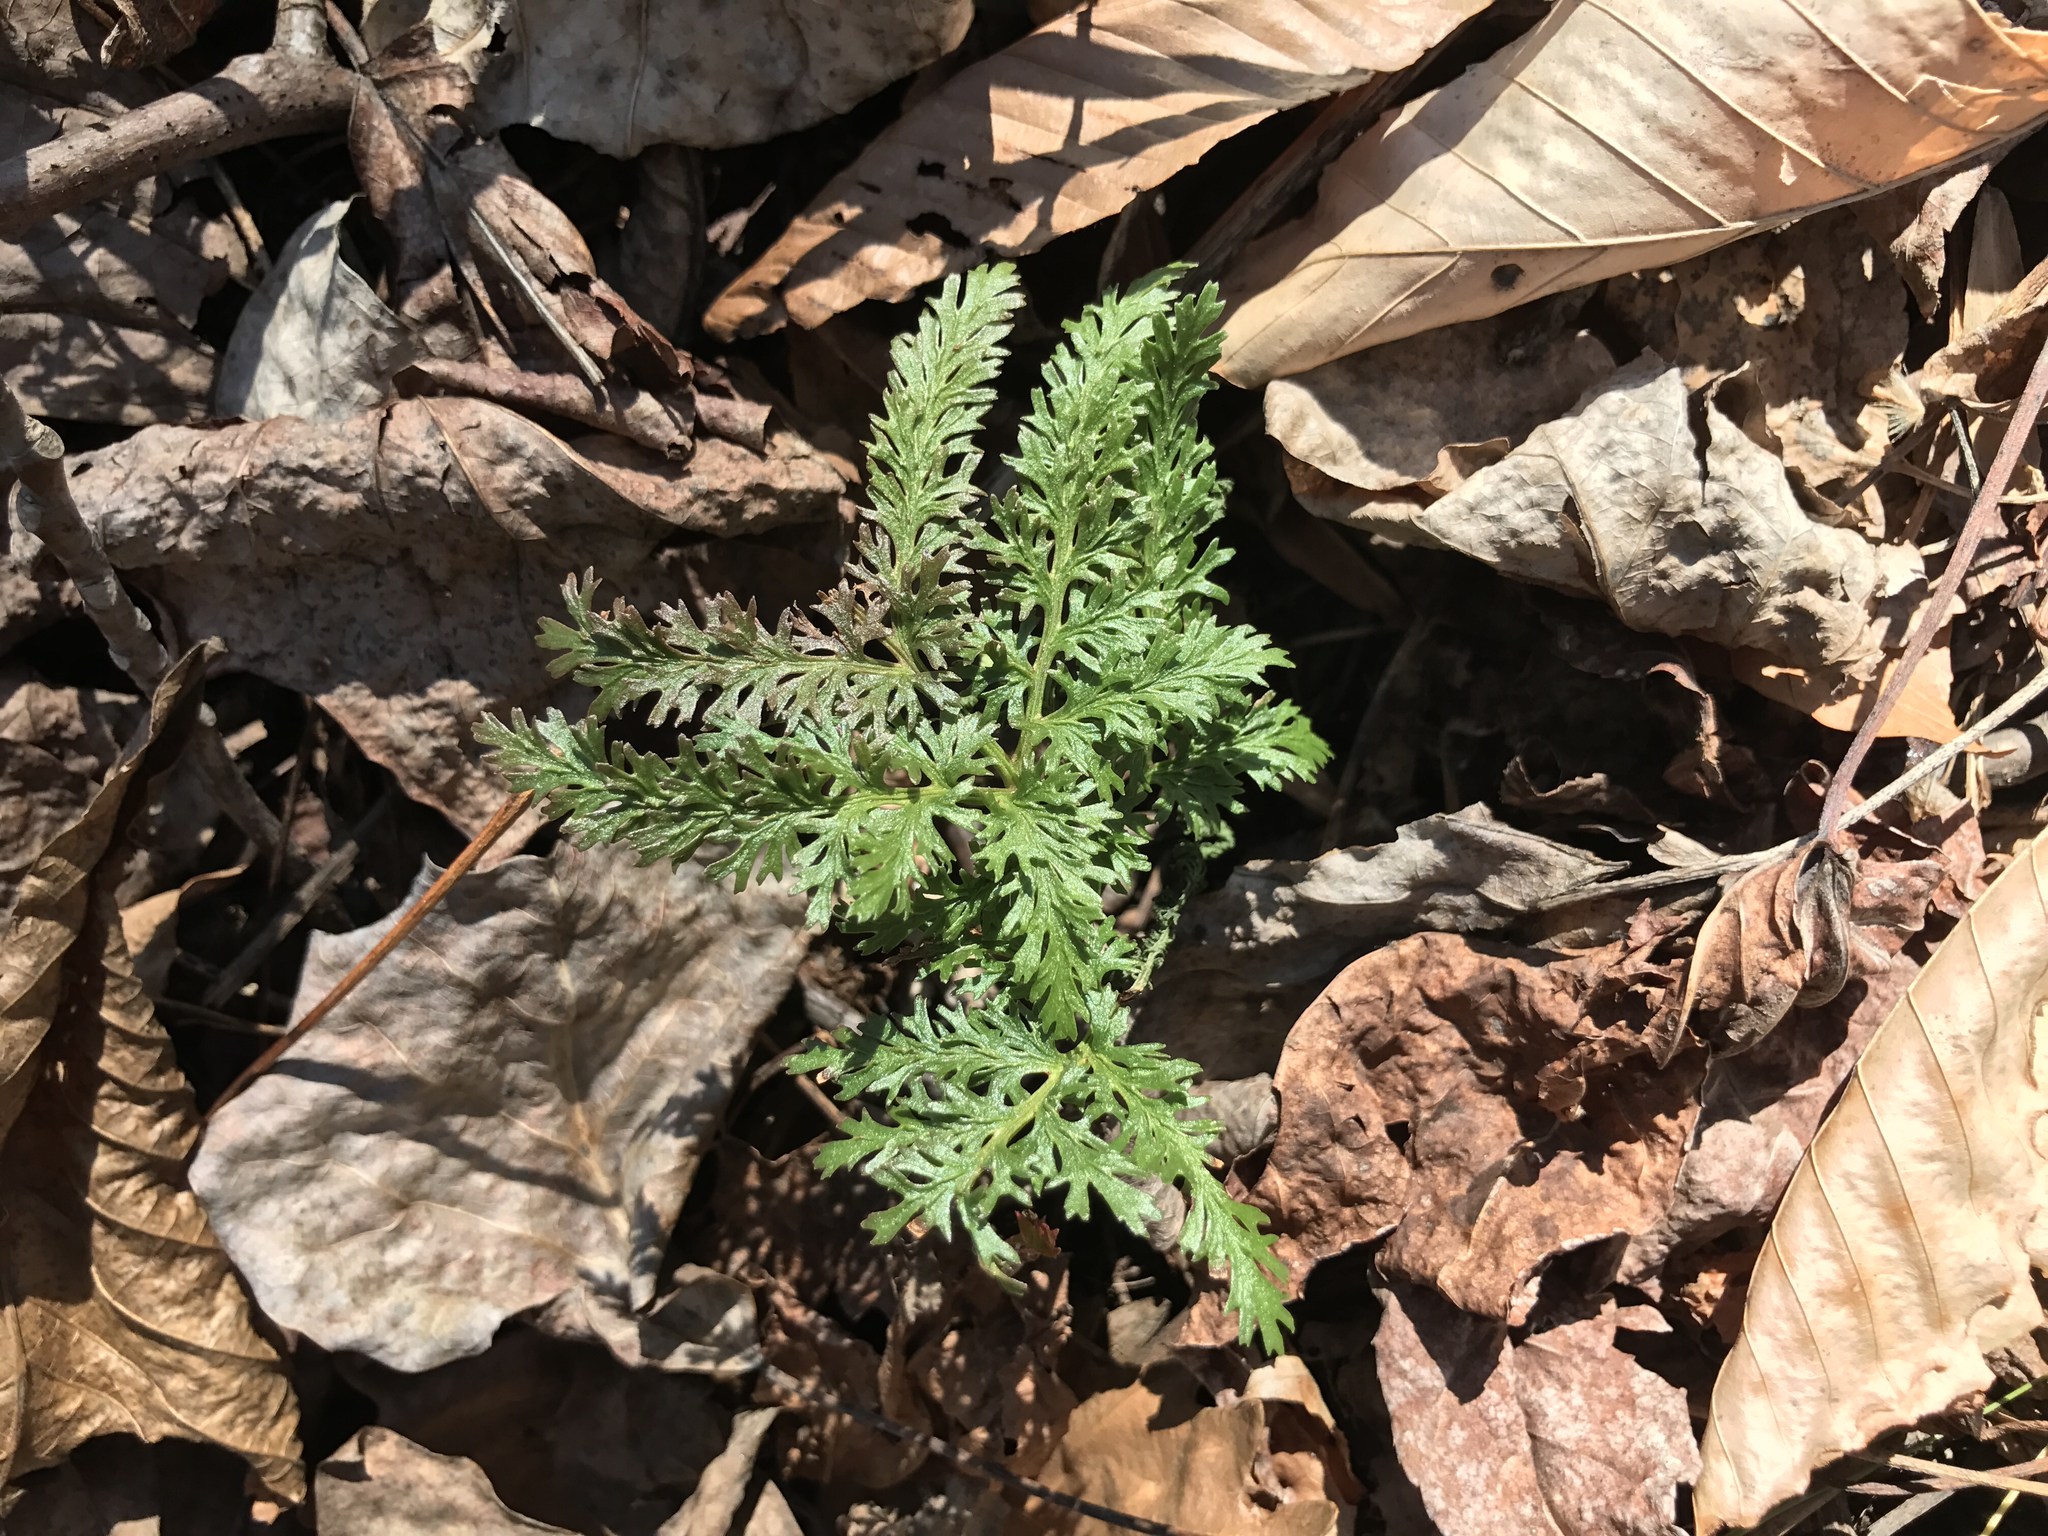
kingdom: Plantae
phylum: Tracheophyta
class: Polypodiopsida
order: Ophioglossales
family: Ophioglossaceae
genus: Sceptridium
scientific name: Sceptridium dissectum
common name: Cut-leaved grapefern
